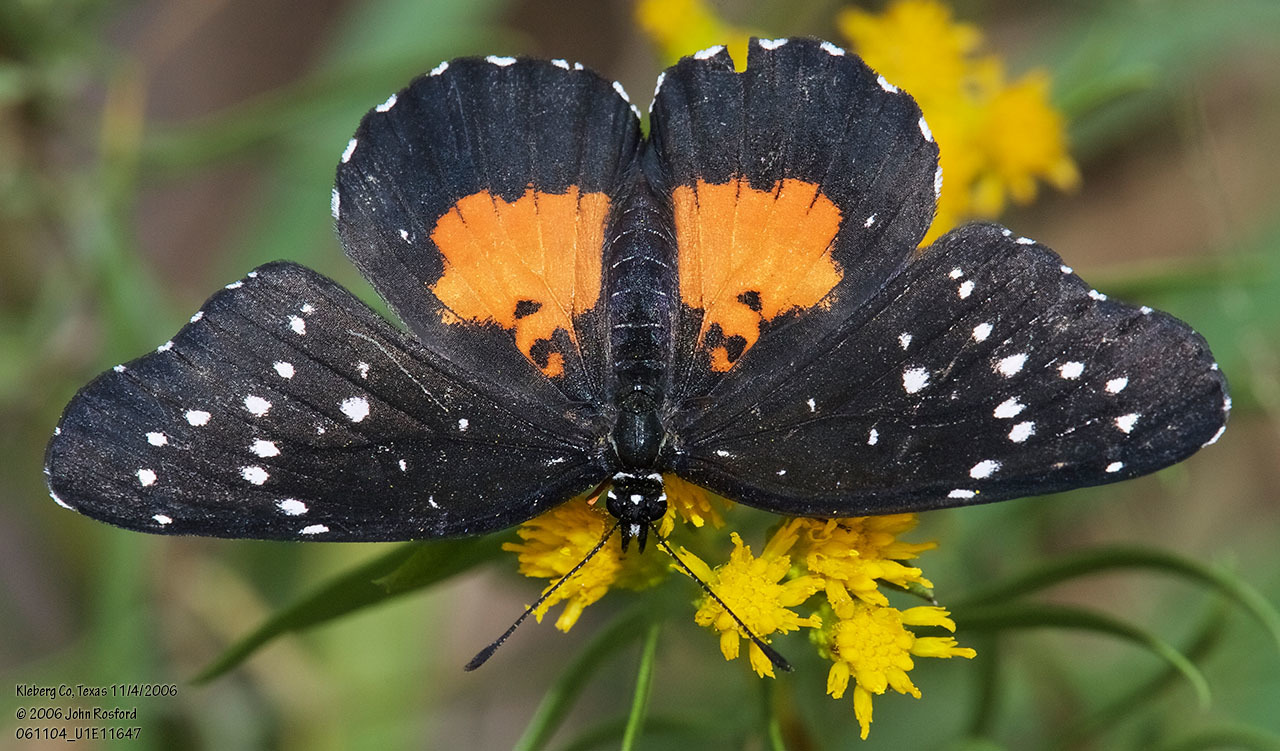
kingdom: Animalia
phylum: Arthropoda
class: Insecta
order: Lepidoptera
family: Nymphalidae
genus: Chlosyne
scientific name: Chlosyne janais
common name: Crimson patch
